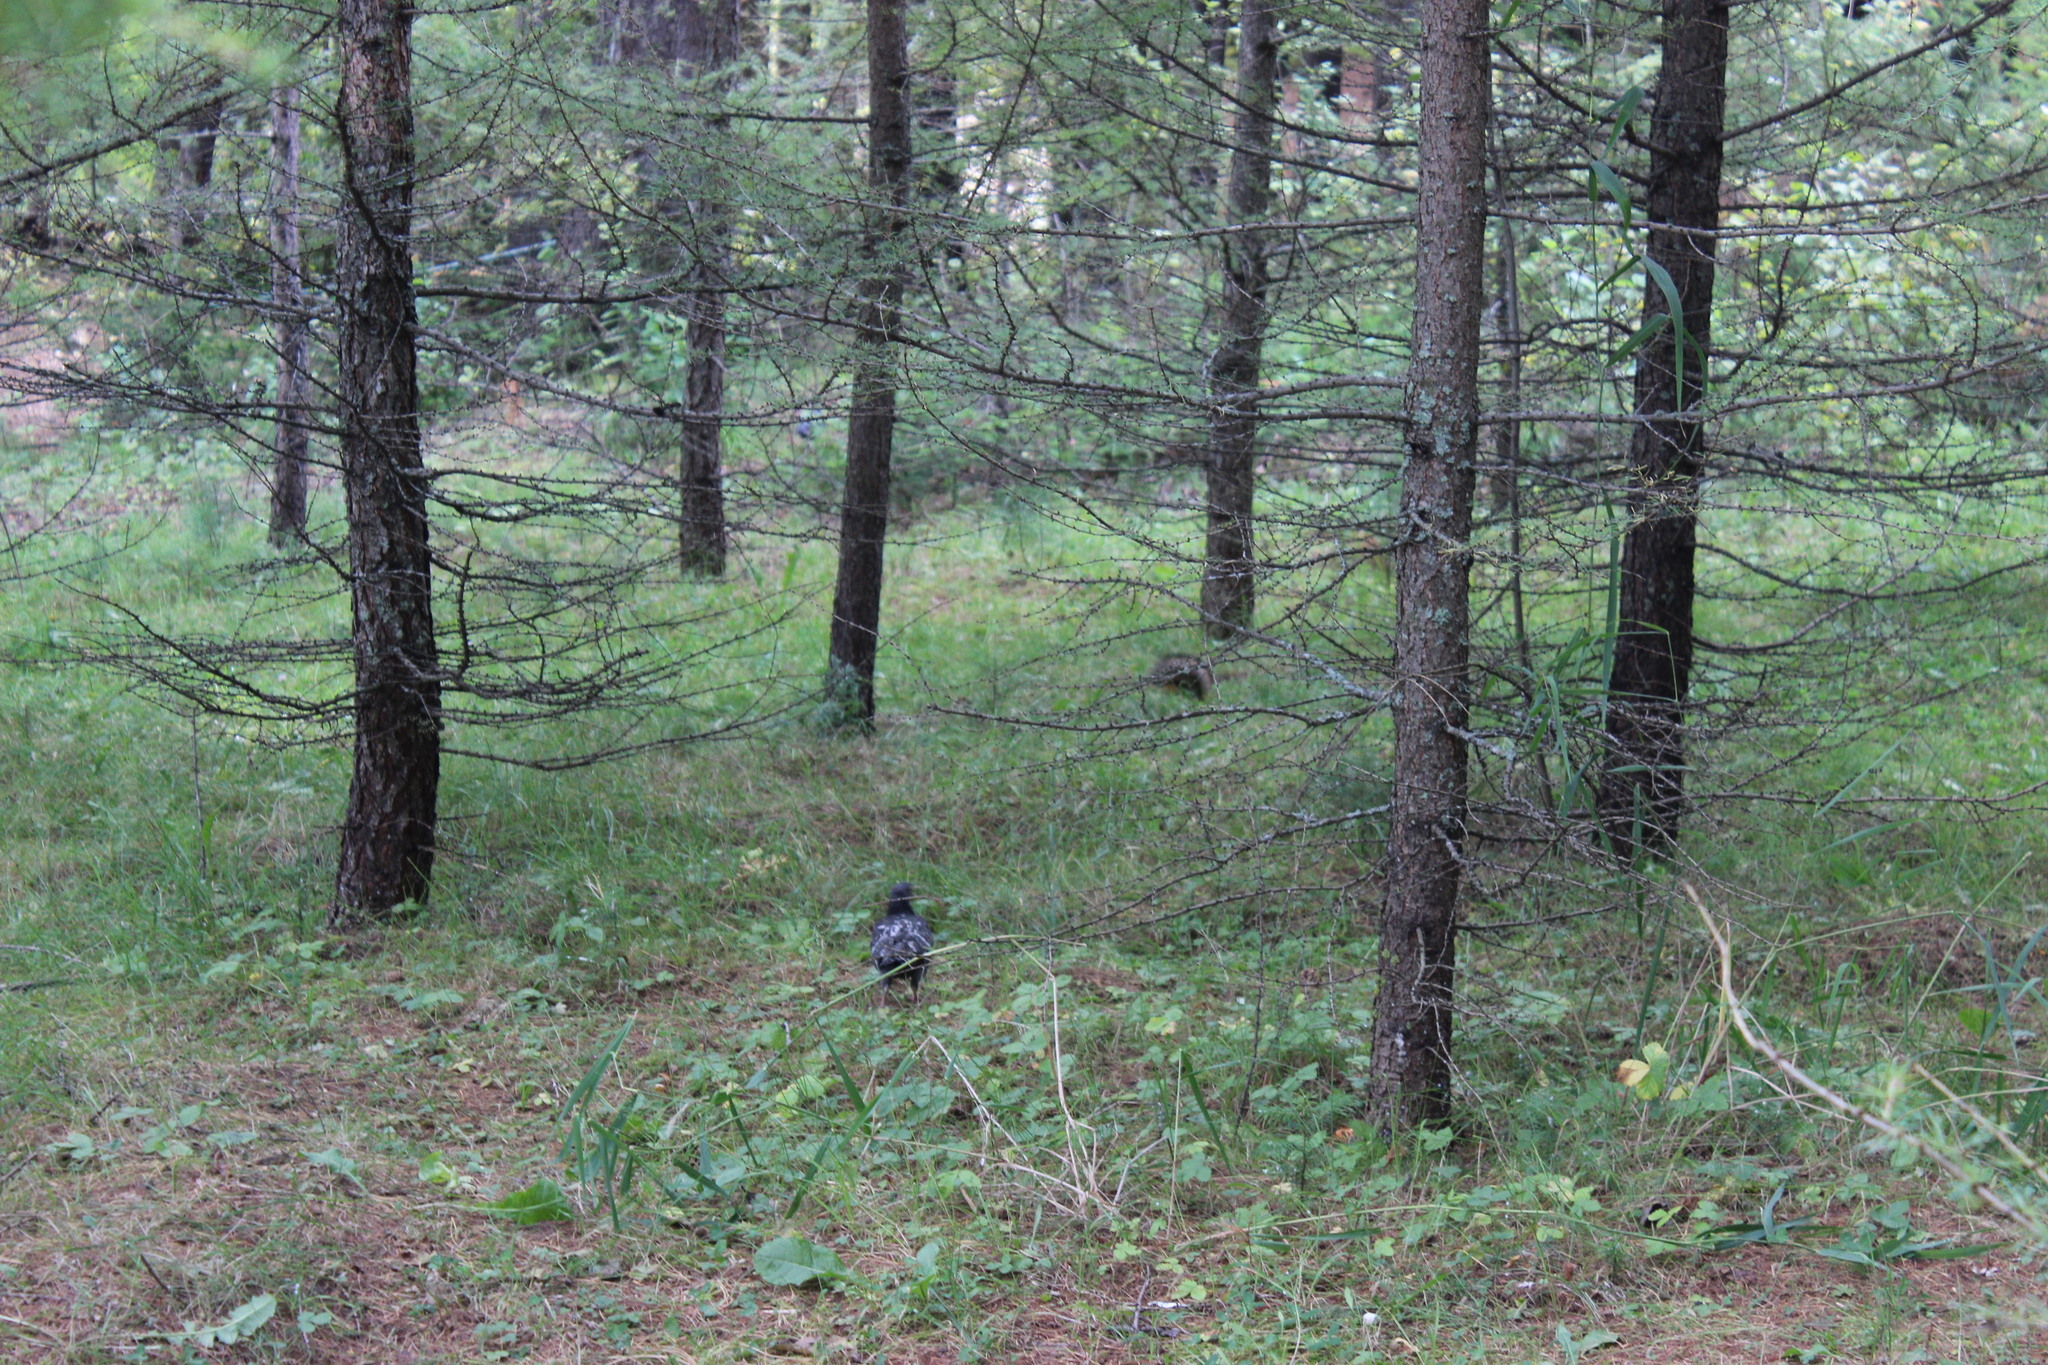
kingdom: Animalia
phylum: Chordata
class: Aves
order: Columbiformes
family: Columbidae
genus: Columba
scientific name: Columba livia
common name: Rock pigeon
